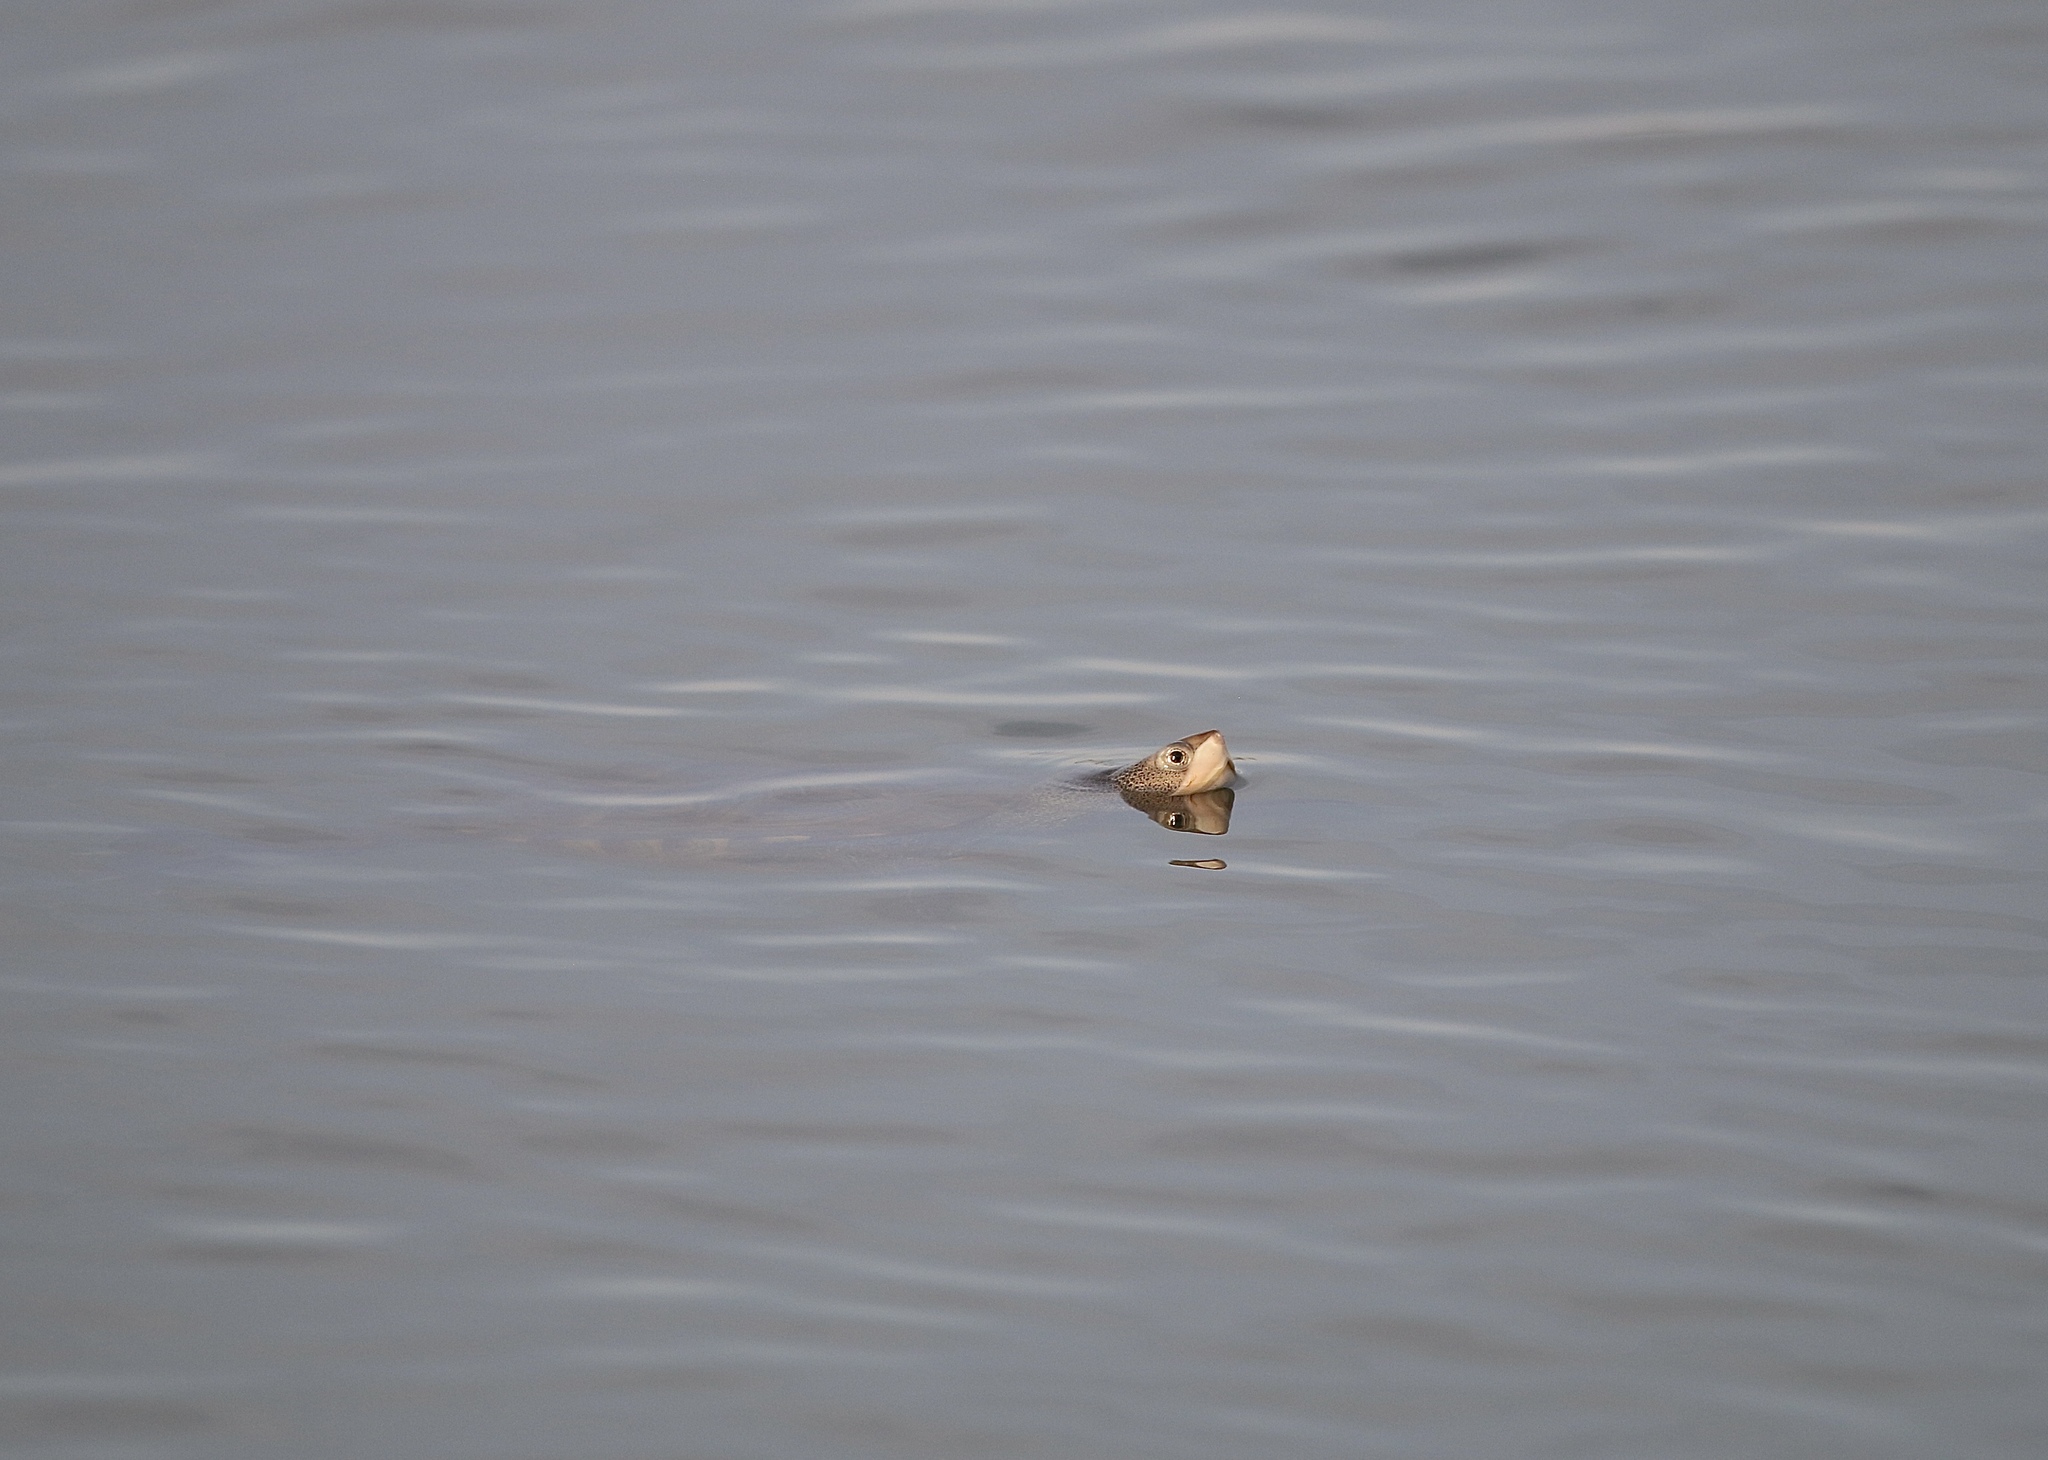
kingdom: Animalia
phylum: Chordata
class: Testudines
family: Emydidae
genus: Malaclemys
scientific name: Malaclemys terrapin
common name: Diamondback terrapin
